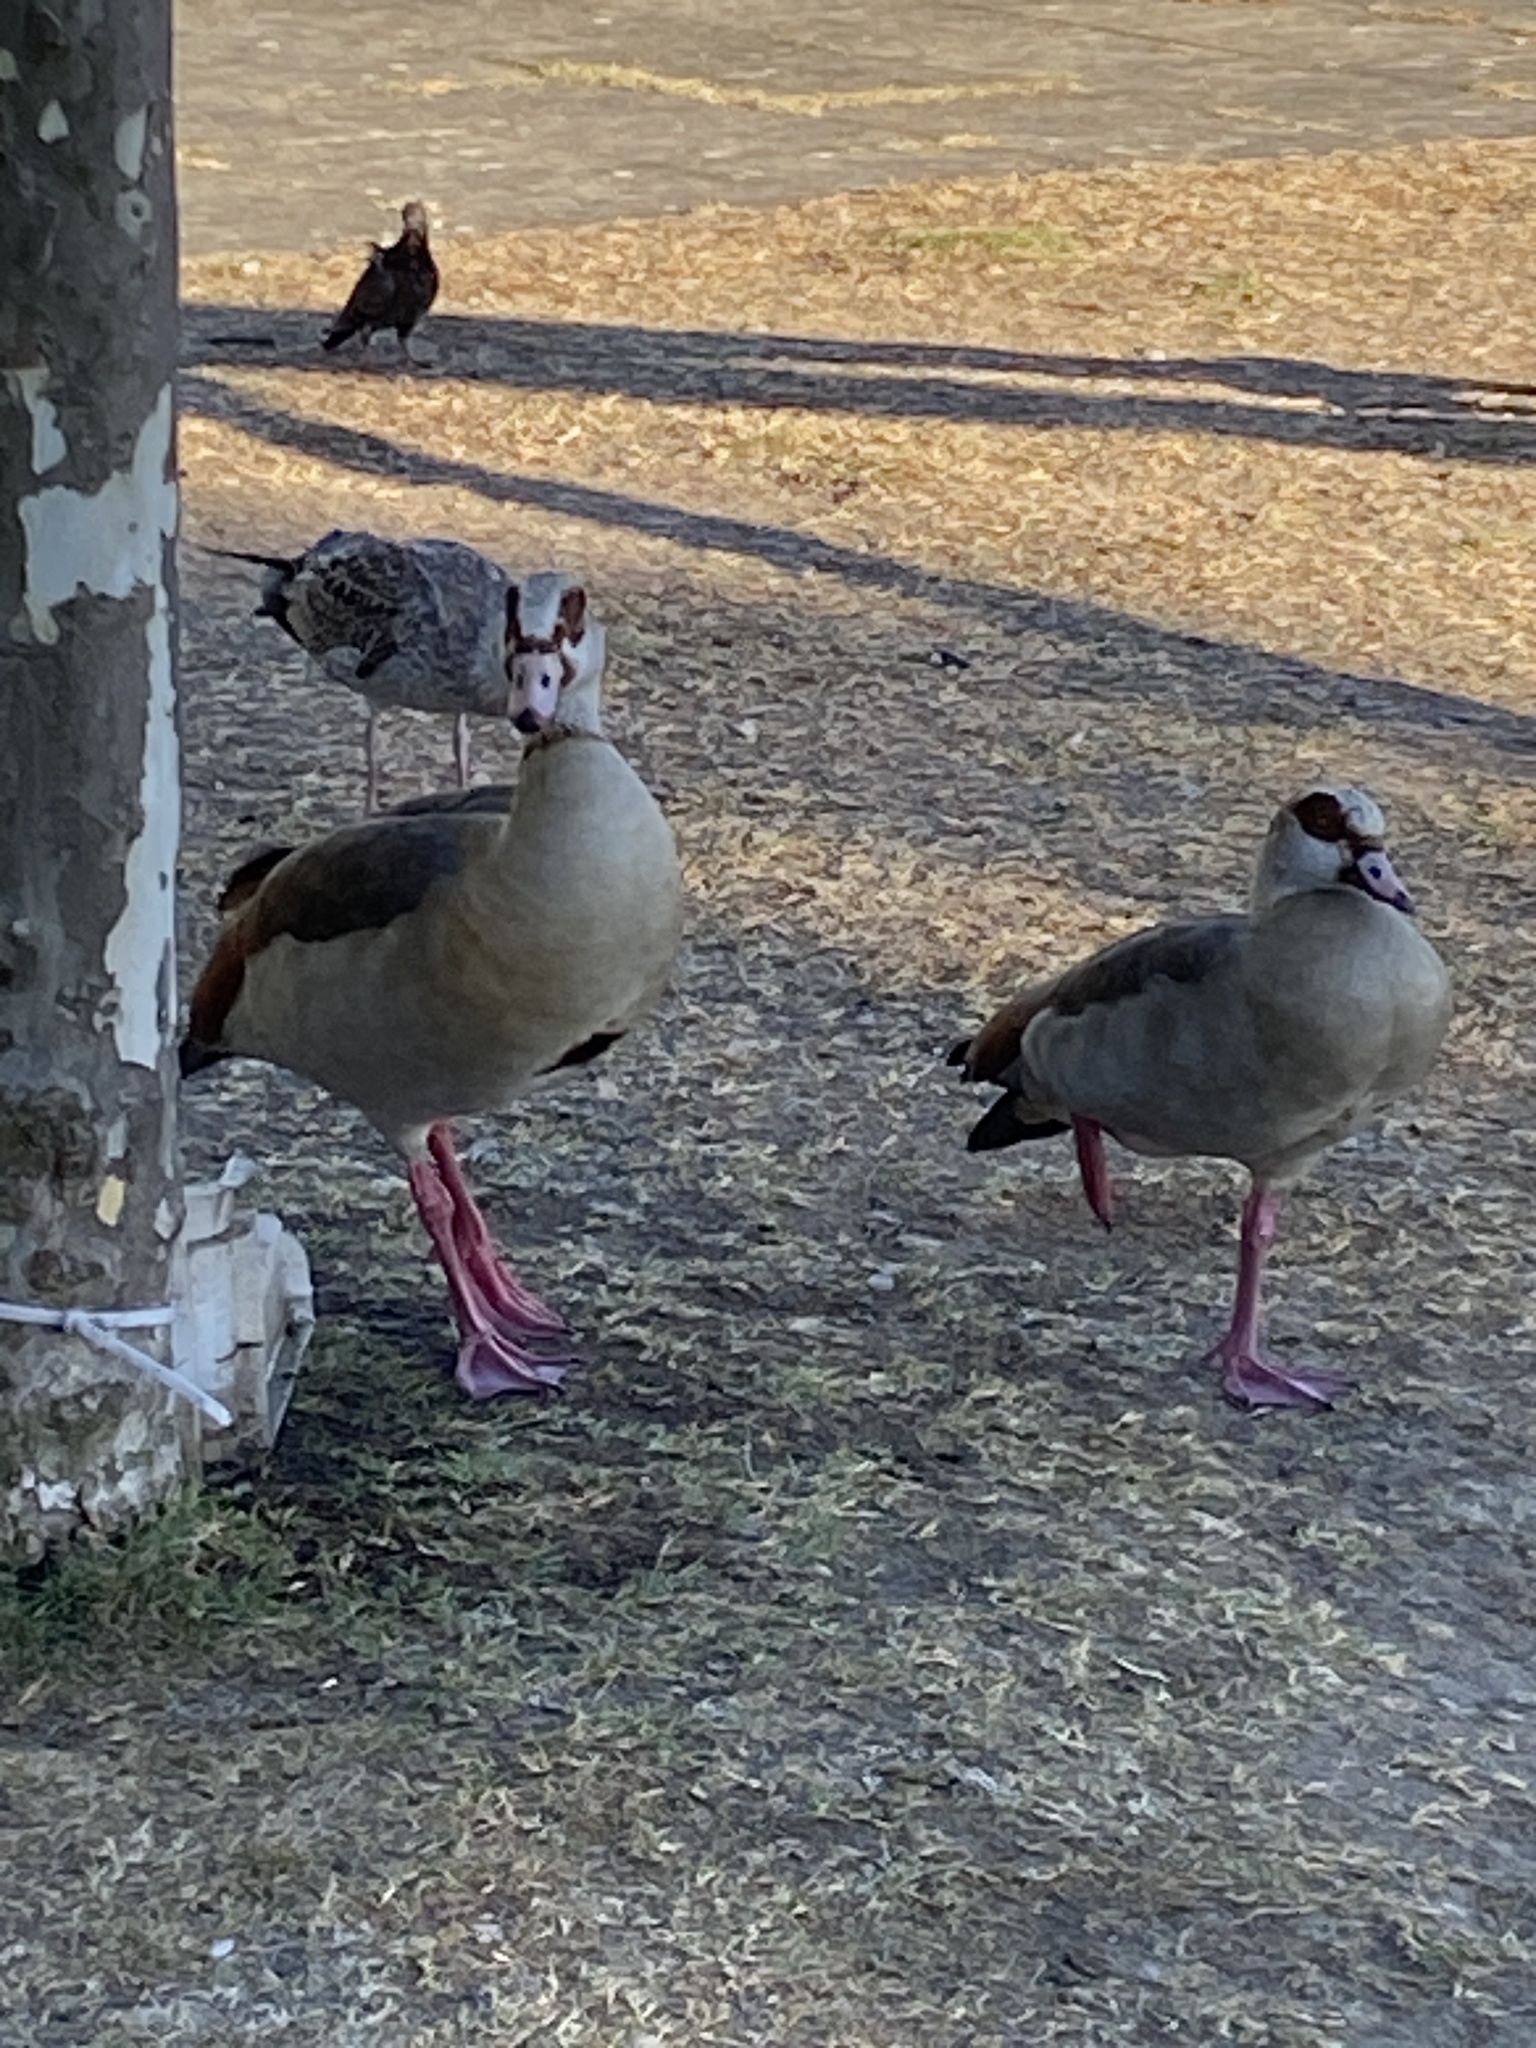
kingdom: Animalia
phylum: Chordata
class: Aves
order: Anseriformes
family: Anatidae
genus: Alopochen
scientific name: Alopochen aegyptiaca
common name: Egyptian goose
